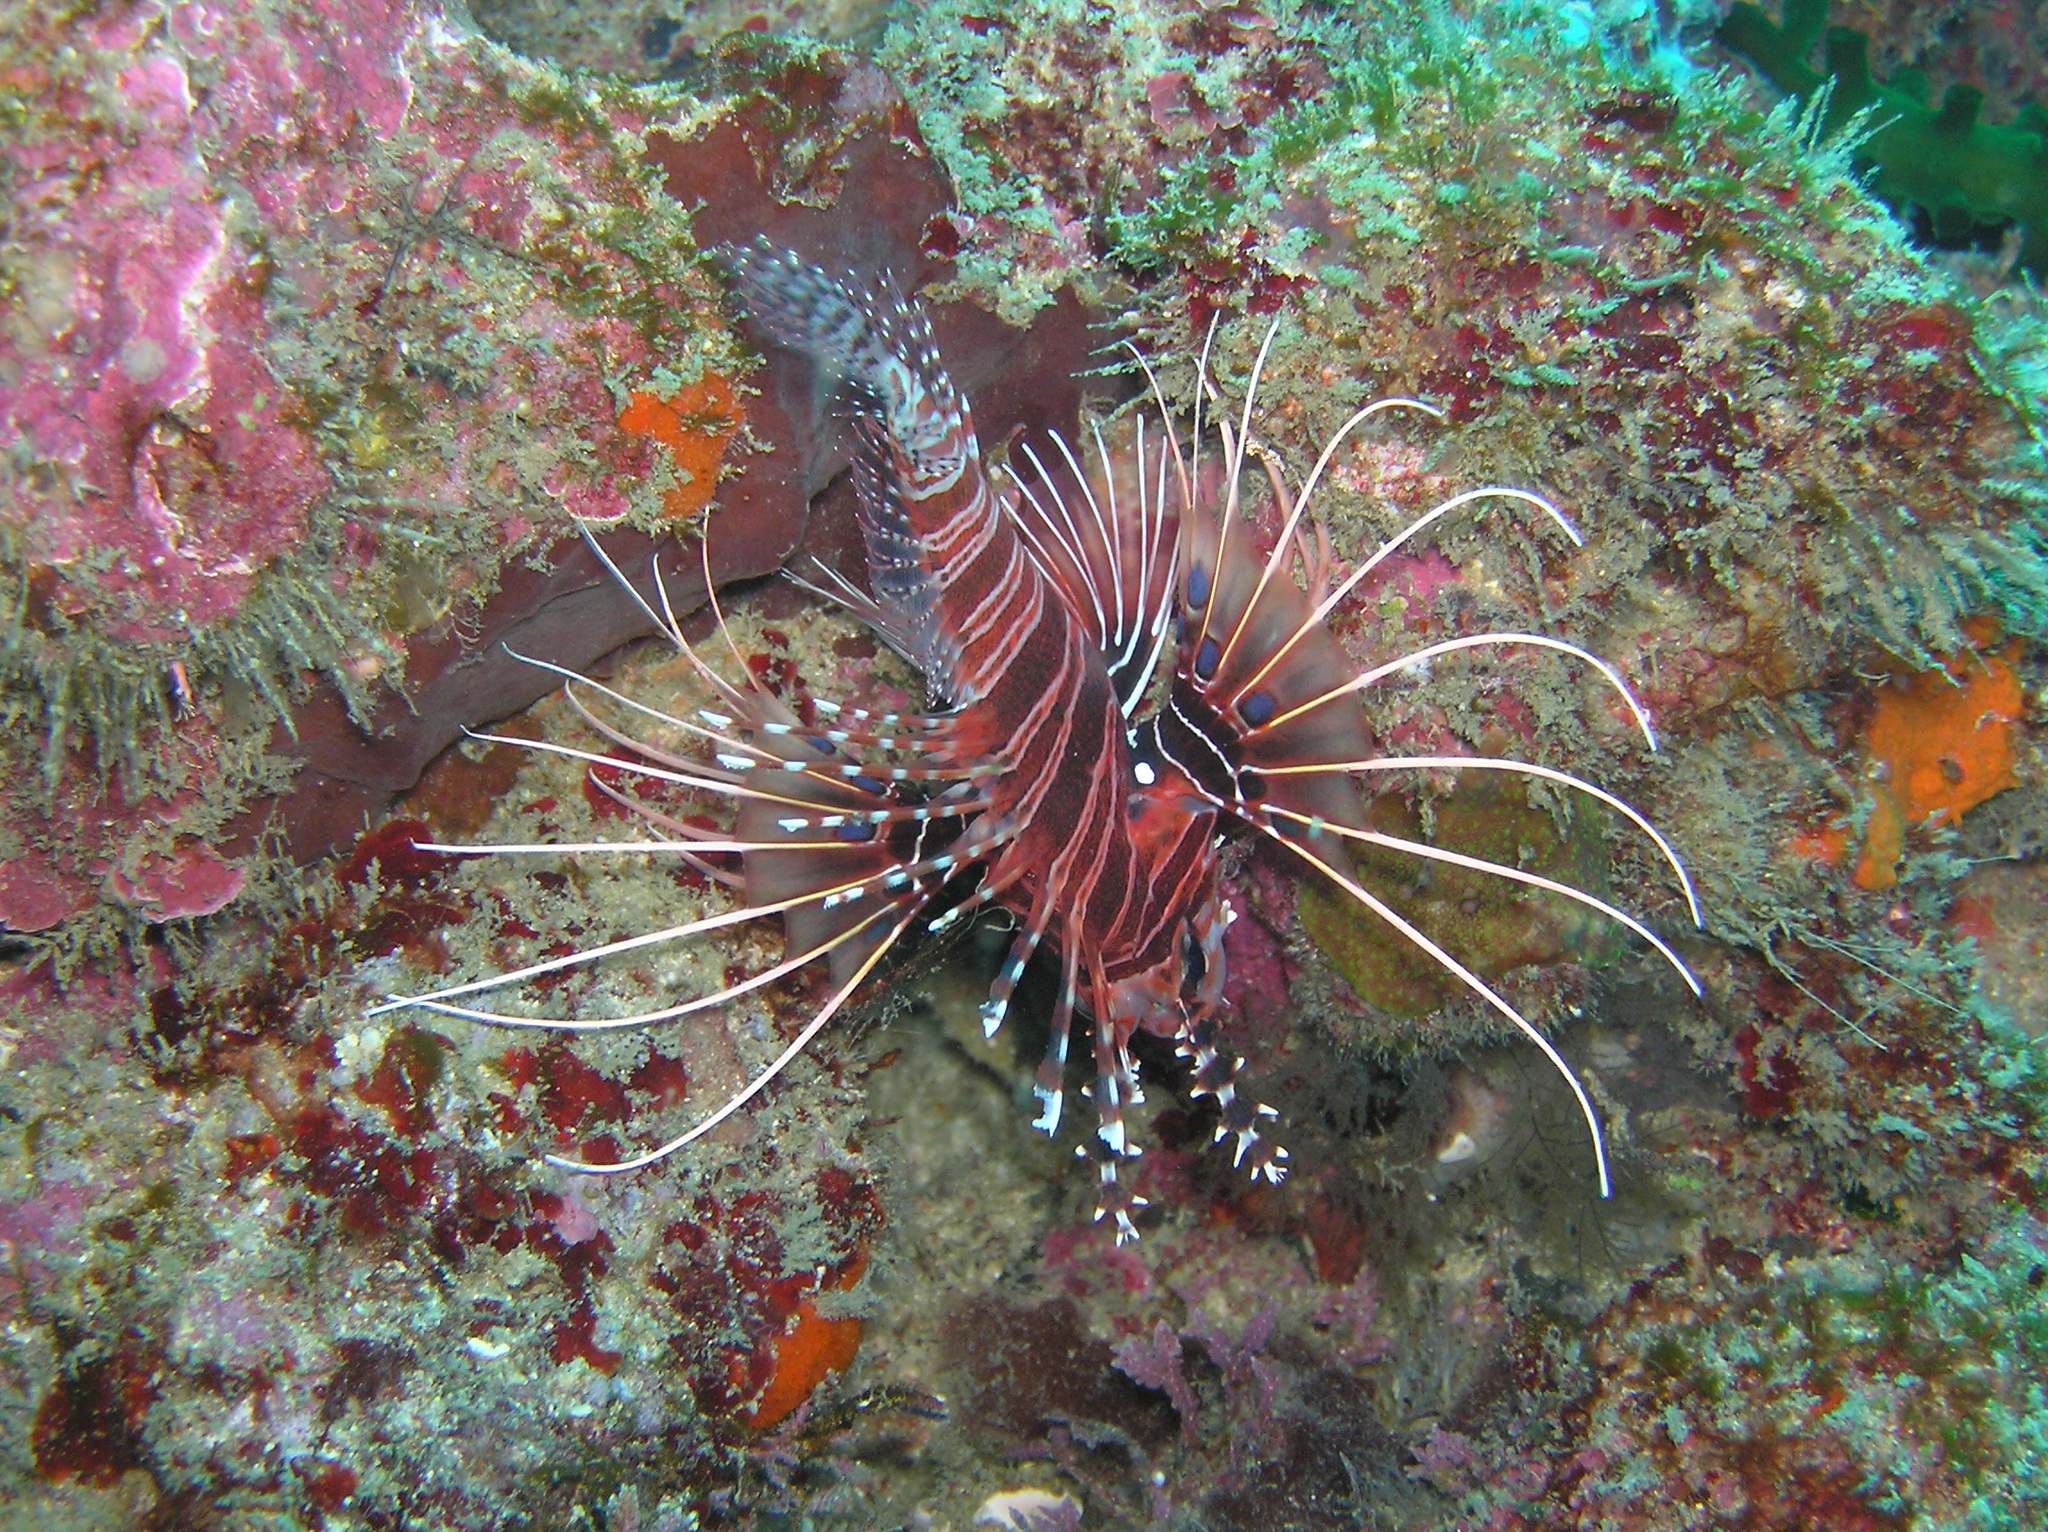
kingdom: Animalia
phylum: Chordata
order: Scorpaeniformes
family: Scorpaenidae
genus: Pterois
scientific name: Pterois antennata
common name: Spotfin lionfish
